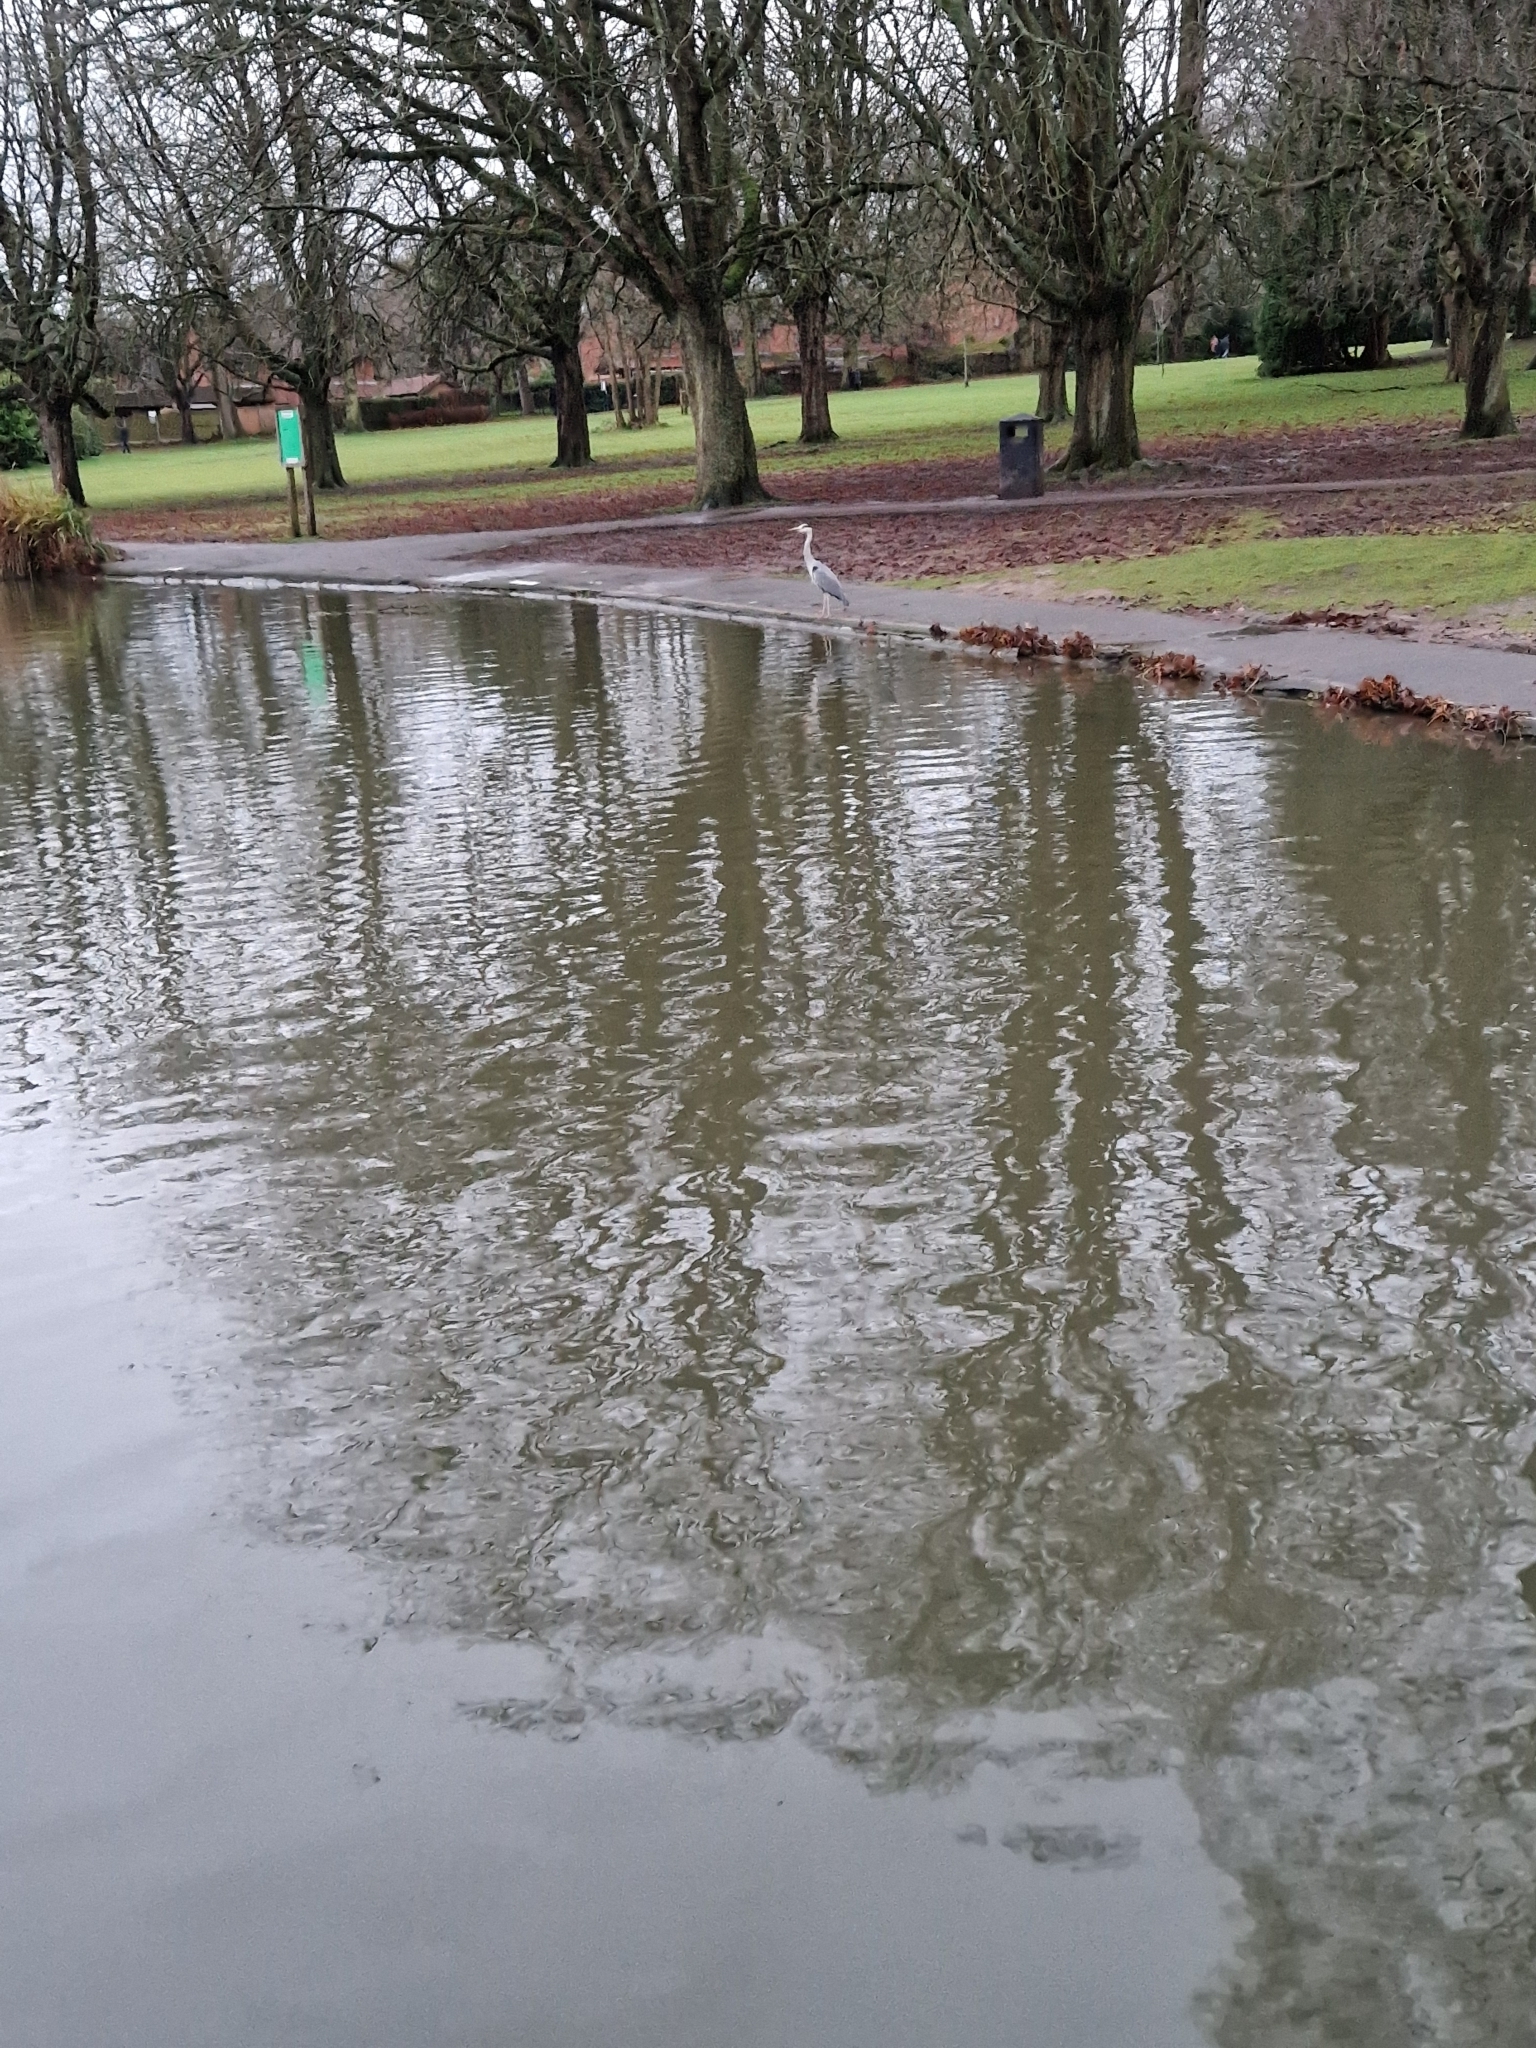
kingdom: Animalia
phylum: Chordata
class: Aves
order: Pelecaniformes
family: Ardeidae
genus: Ardea
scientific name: Ardea cinerea
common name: Grey heron
